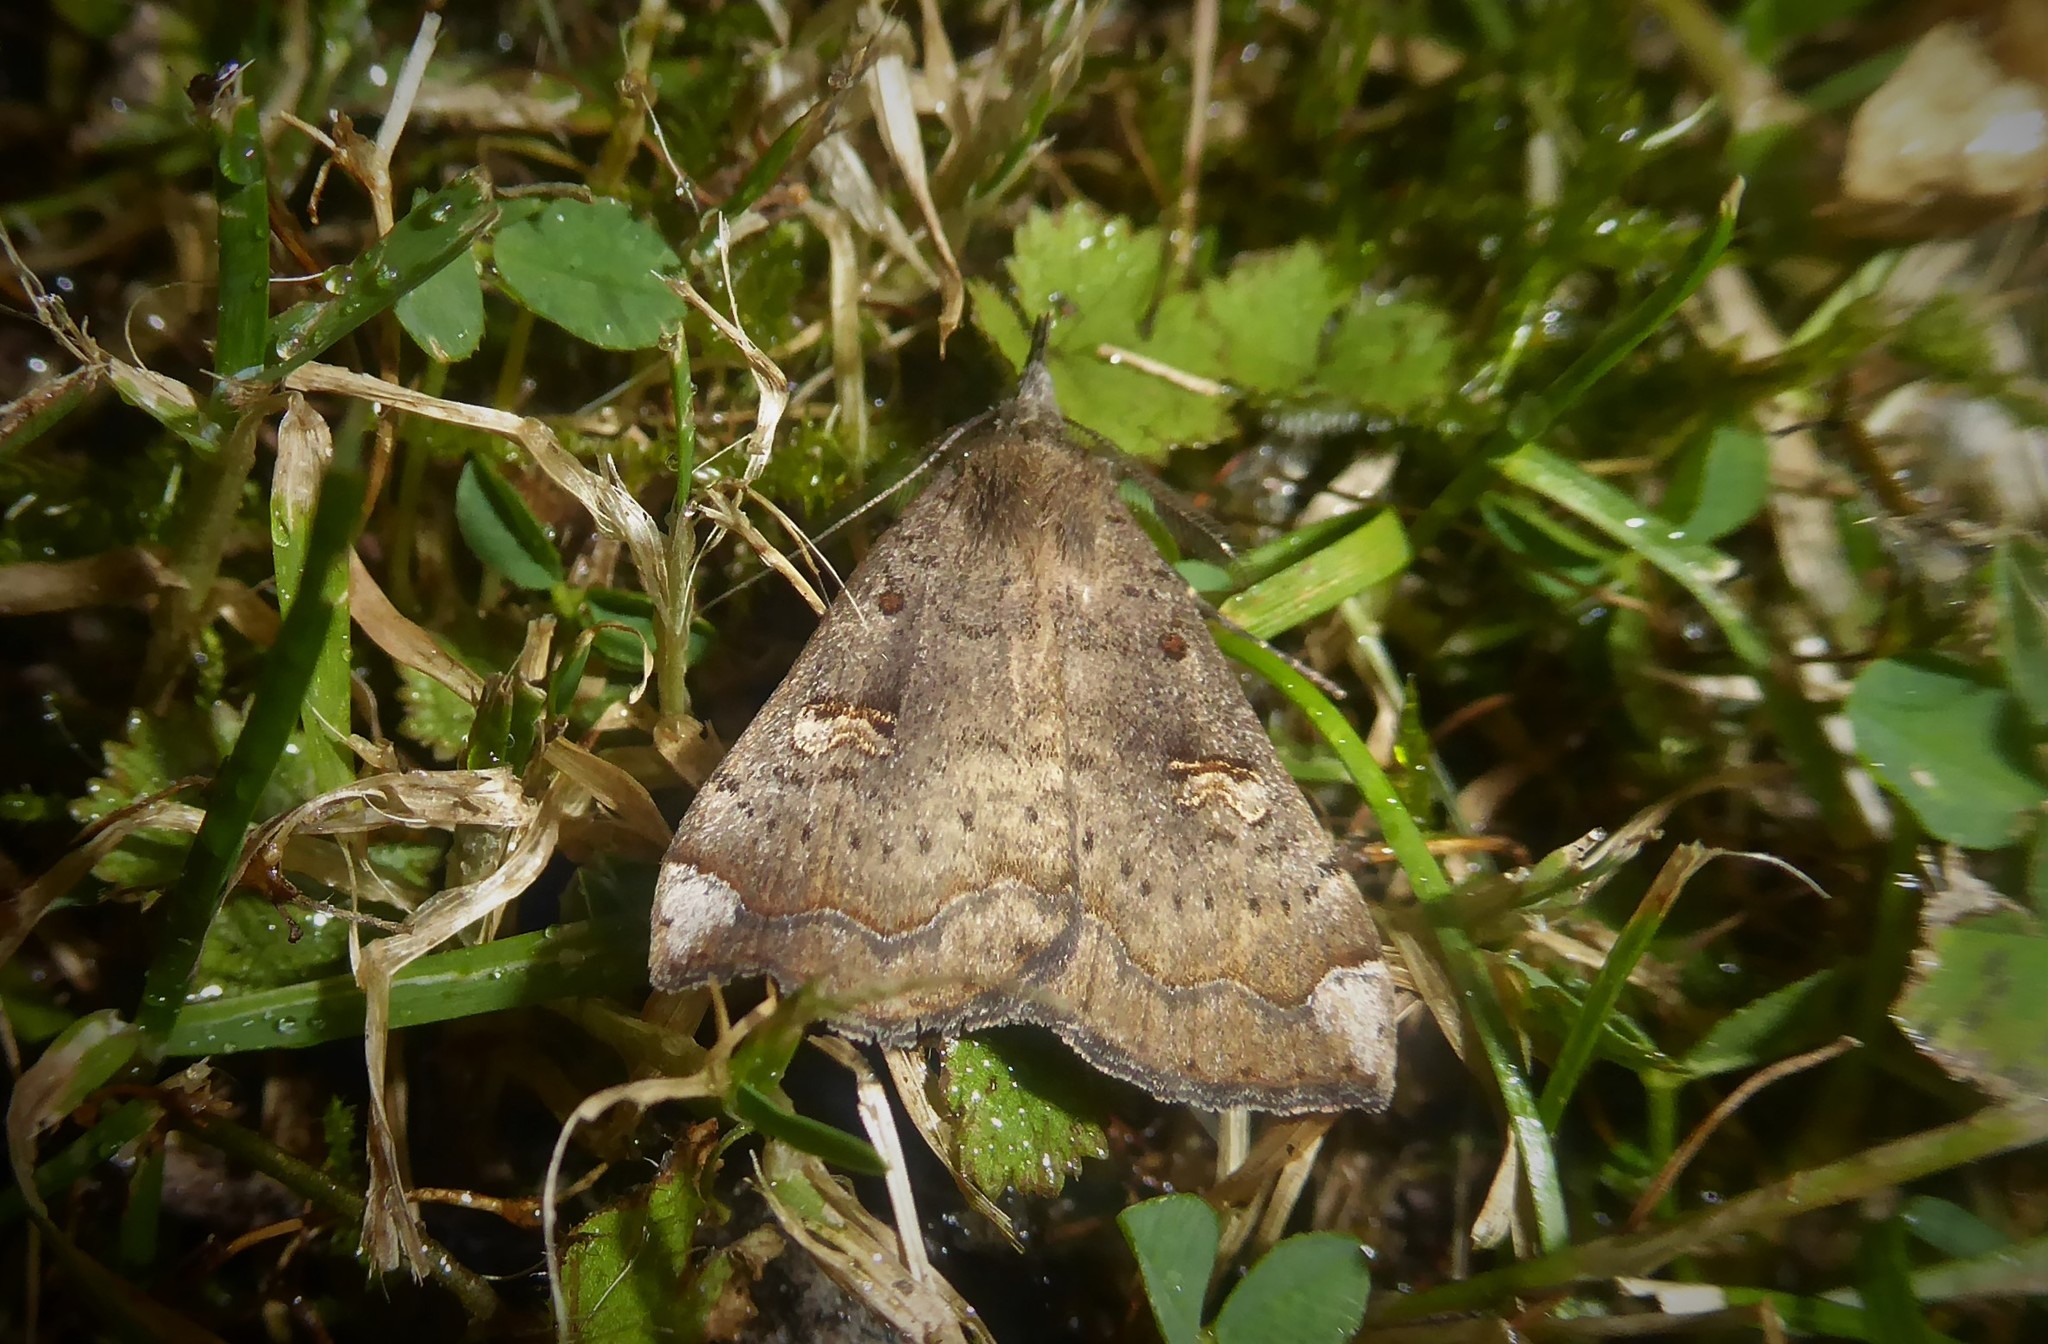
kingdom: Animalia
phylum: Arthropoda
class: Insecta
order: Lepidoptera
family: Erebidae
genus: Rhapsa
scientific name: Rhapsa scotosialis
